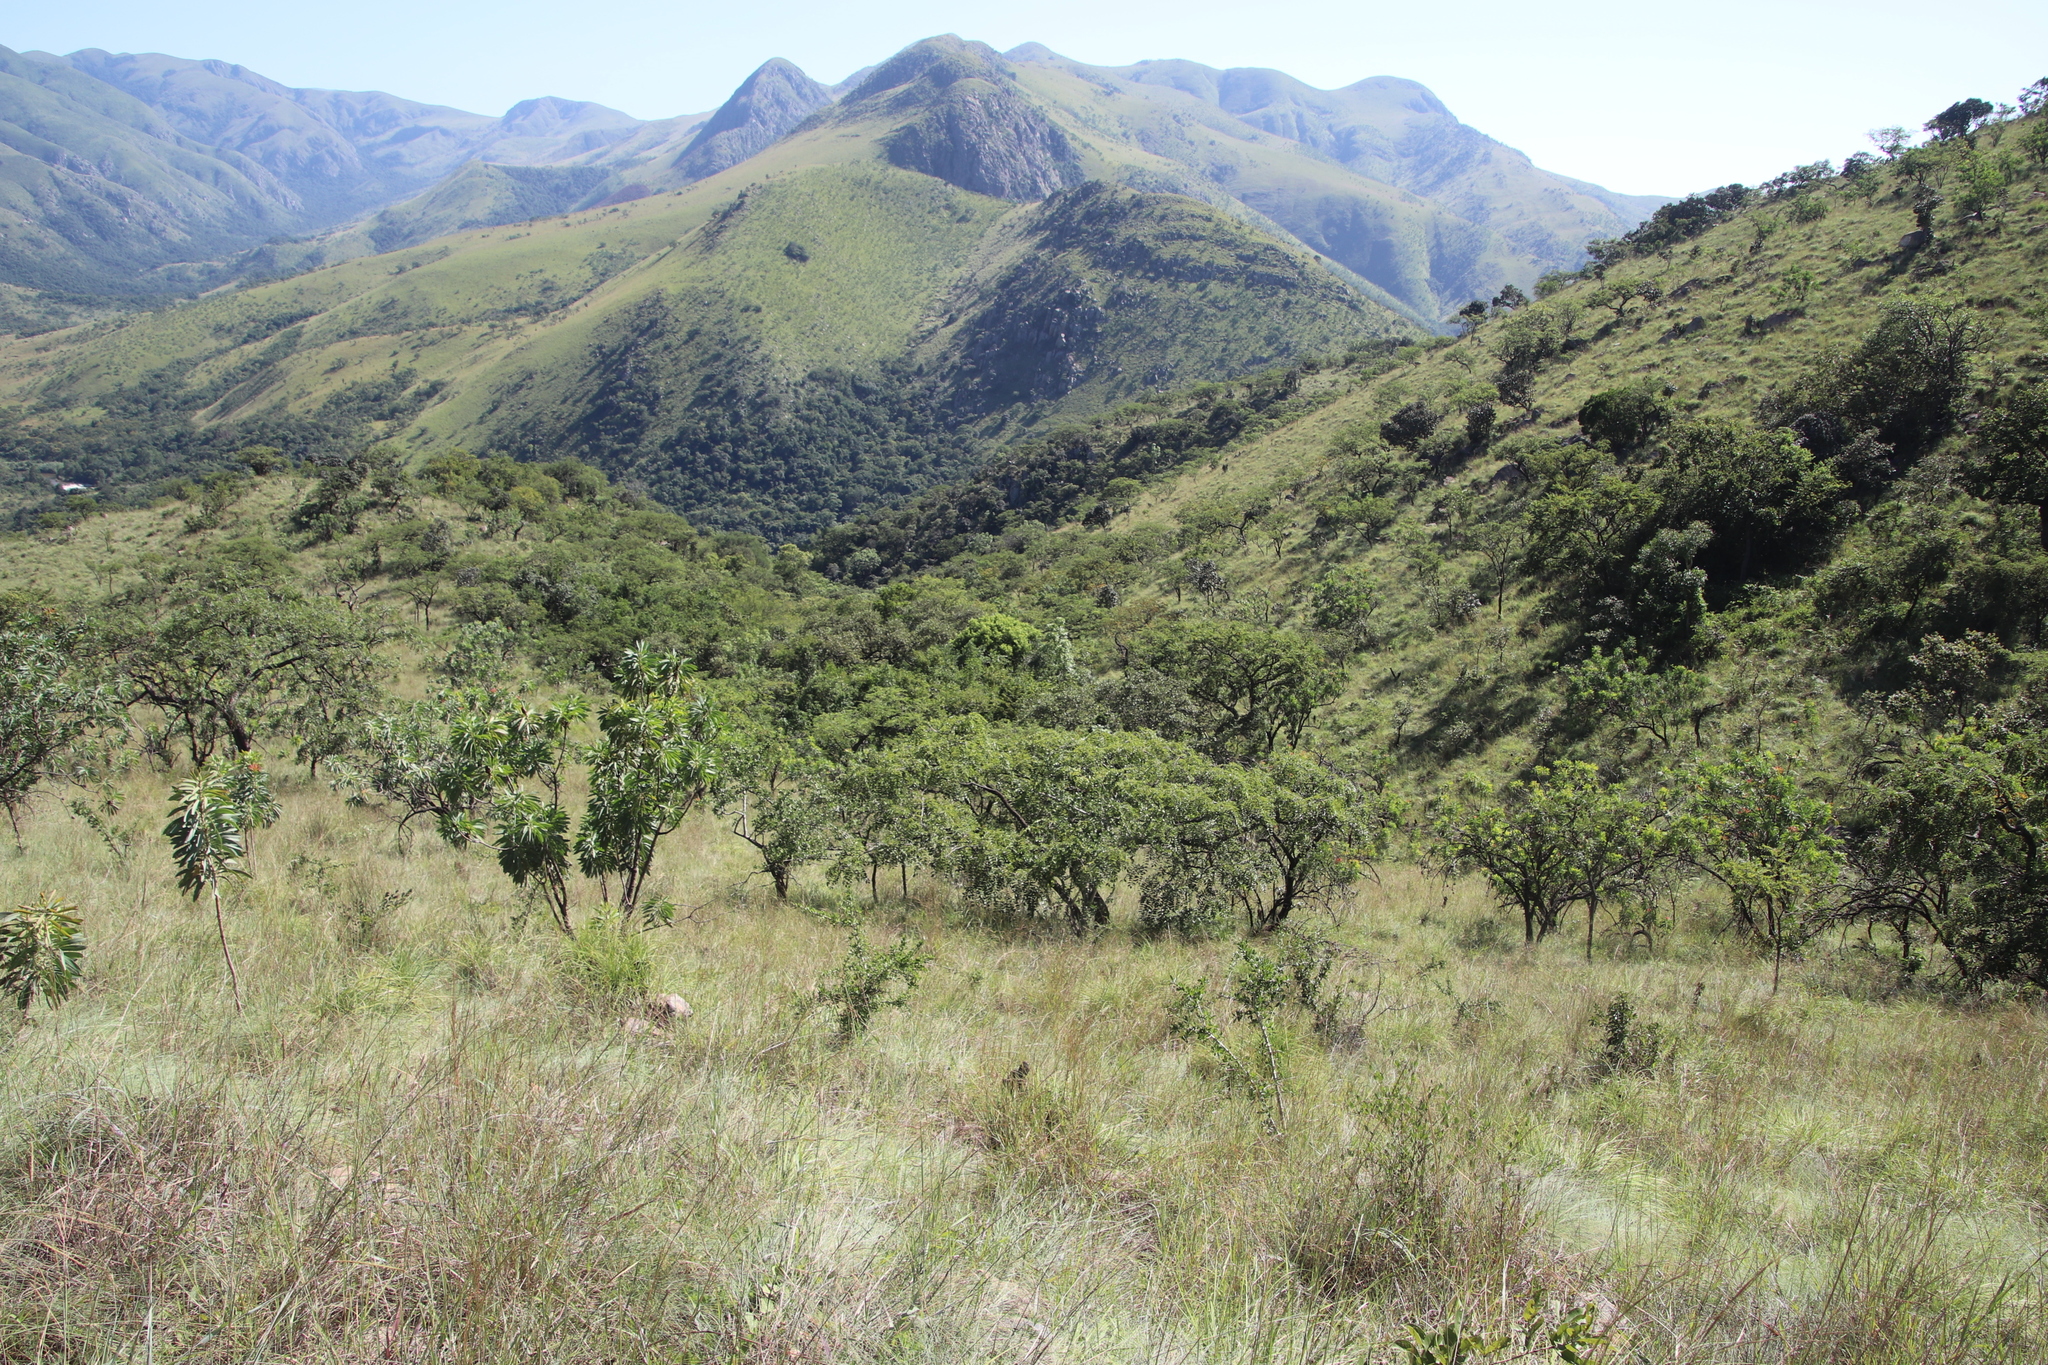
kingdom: Plantae
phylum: Tracheophyta
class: Magnoliopsida
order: Fabales
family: Fabaceae
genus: Pterocarpus
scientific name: Pterocarpus angolensis
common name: Bloodwood tree
